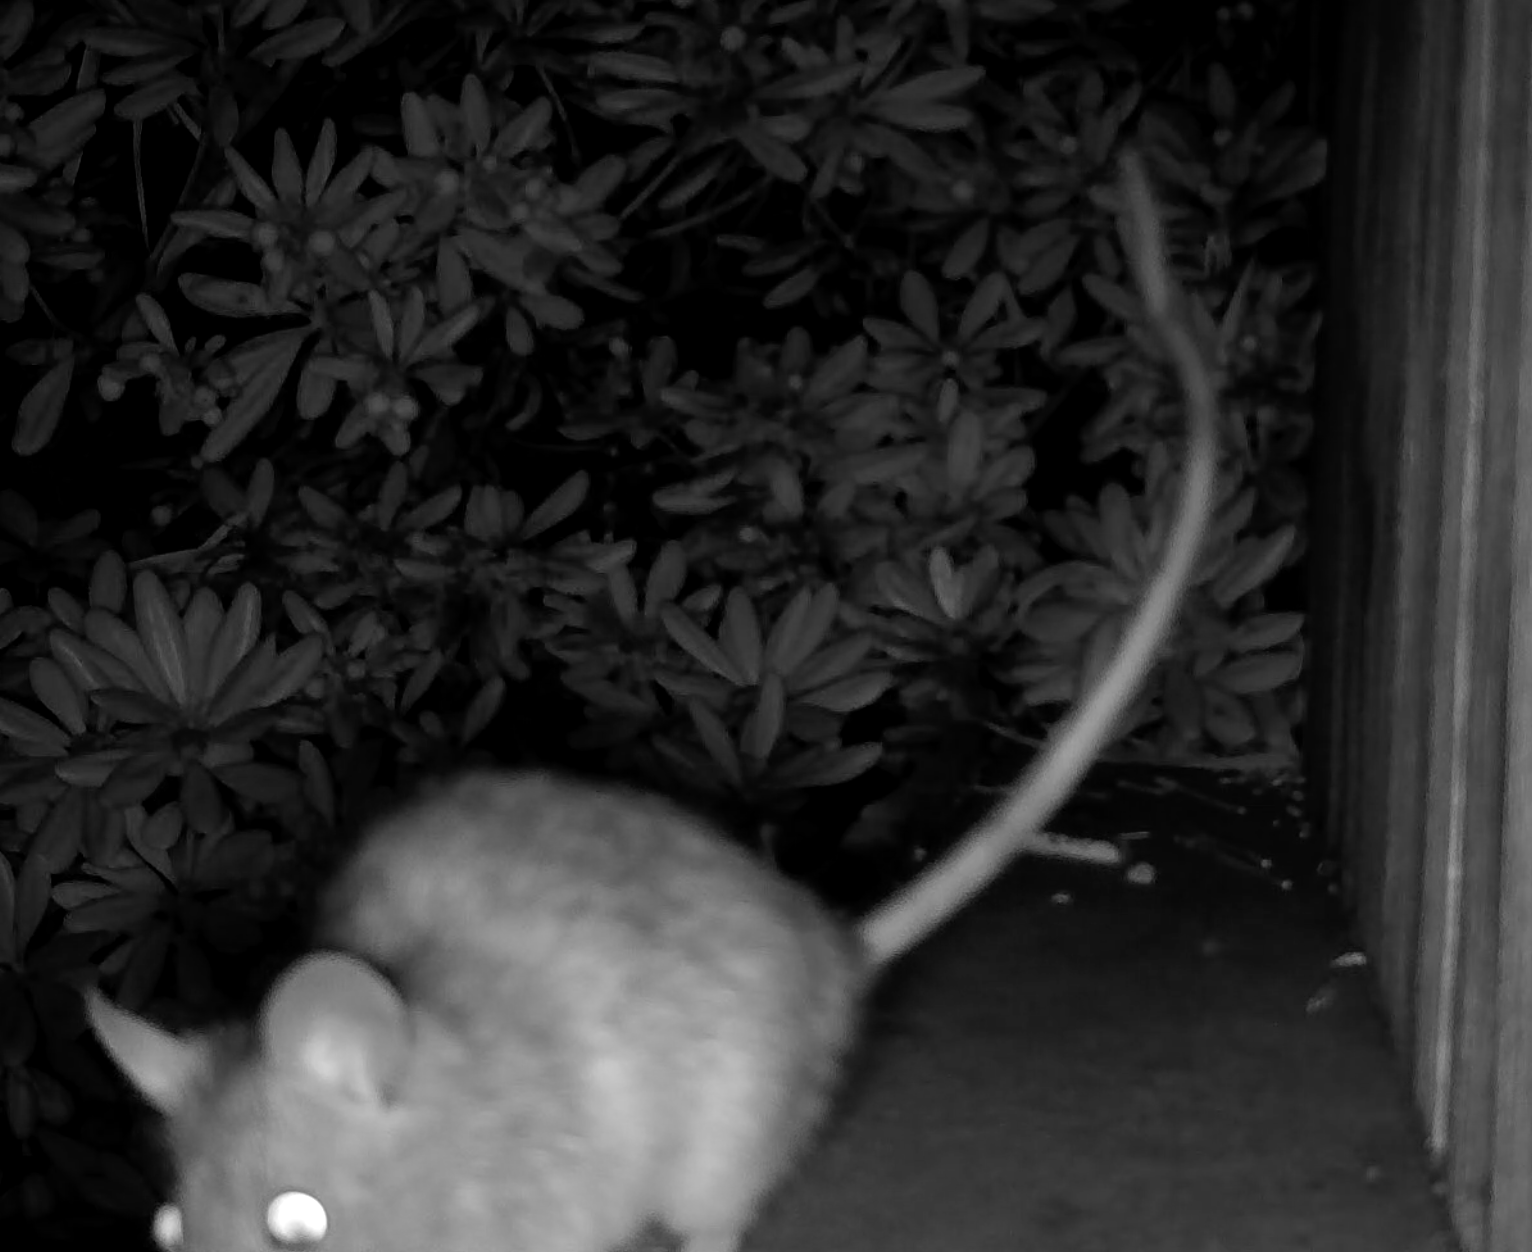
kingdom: Animalia
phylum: Chordata
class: Mammalia
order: Rodentia
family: Muridae
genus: Rattus
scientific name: Rattus rattus
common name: Black rat
